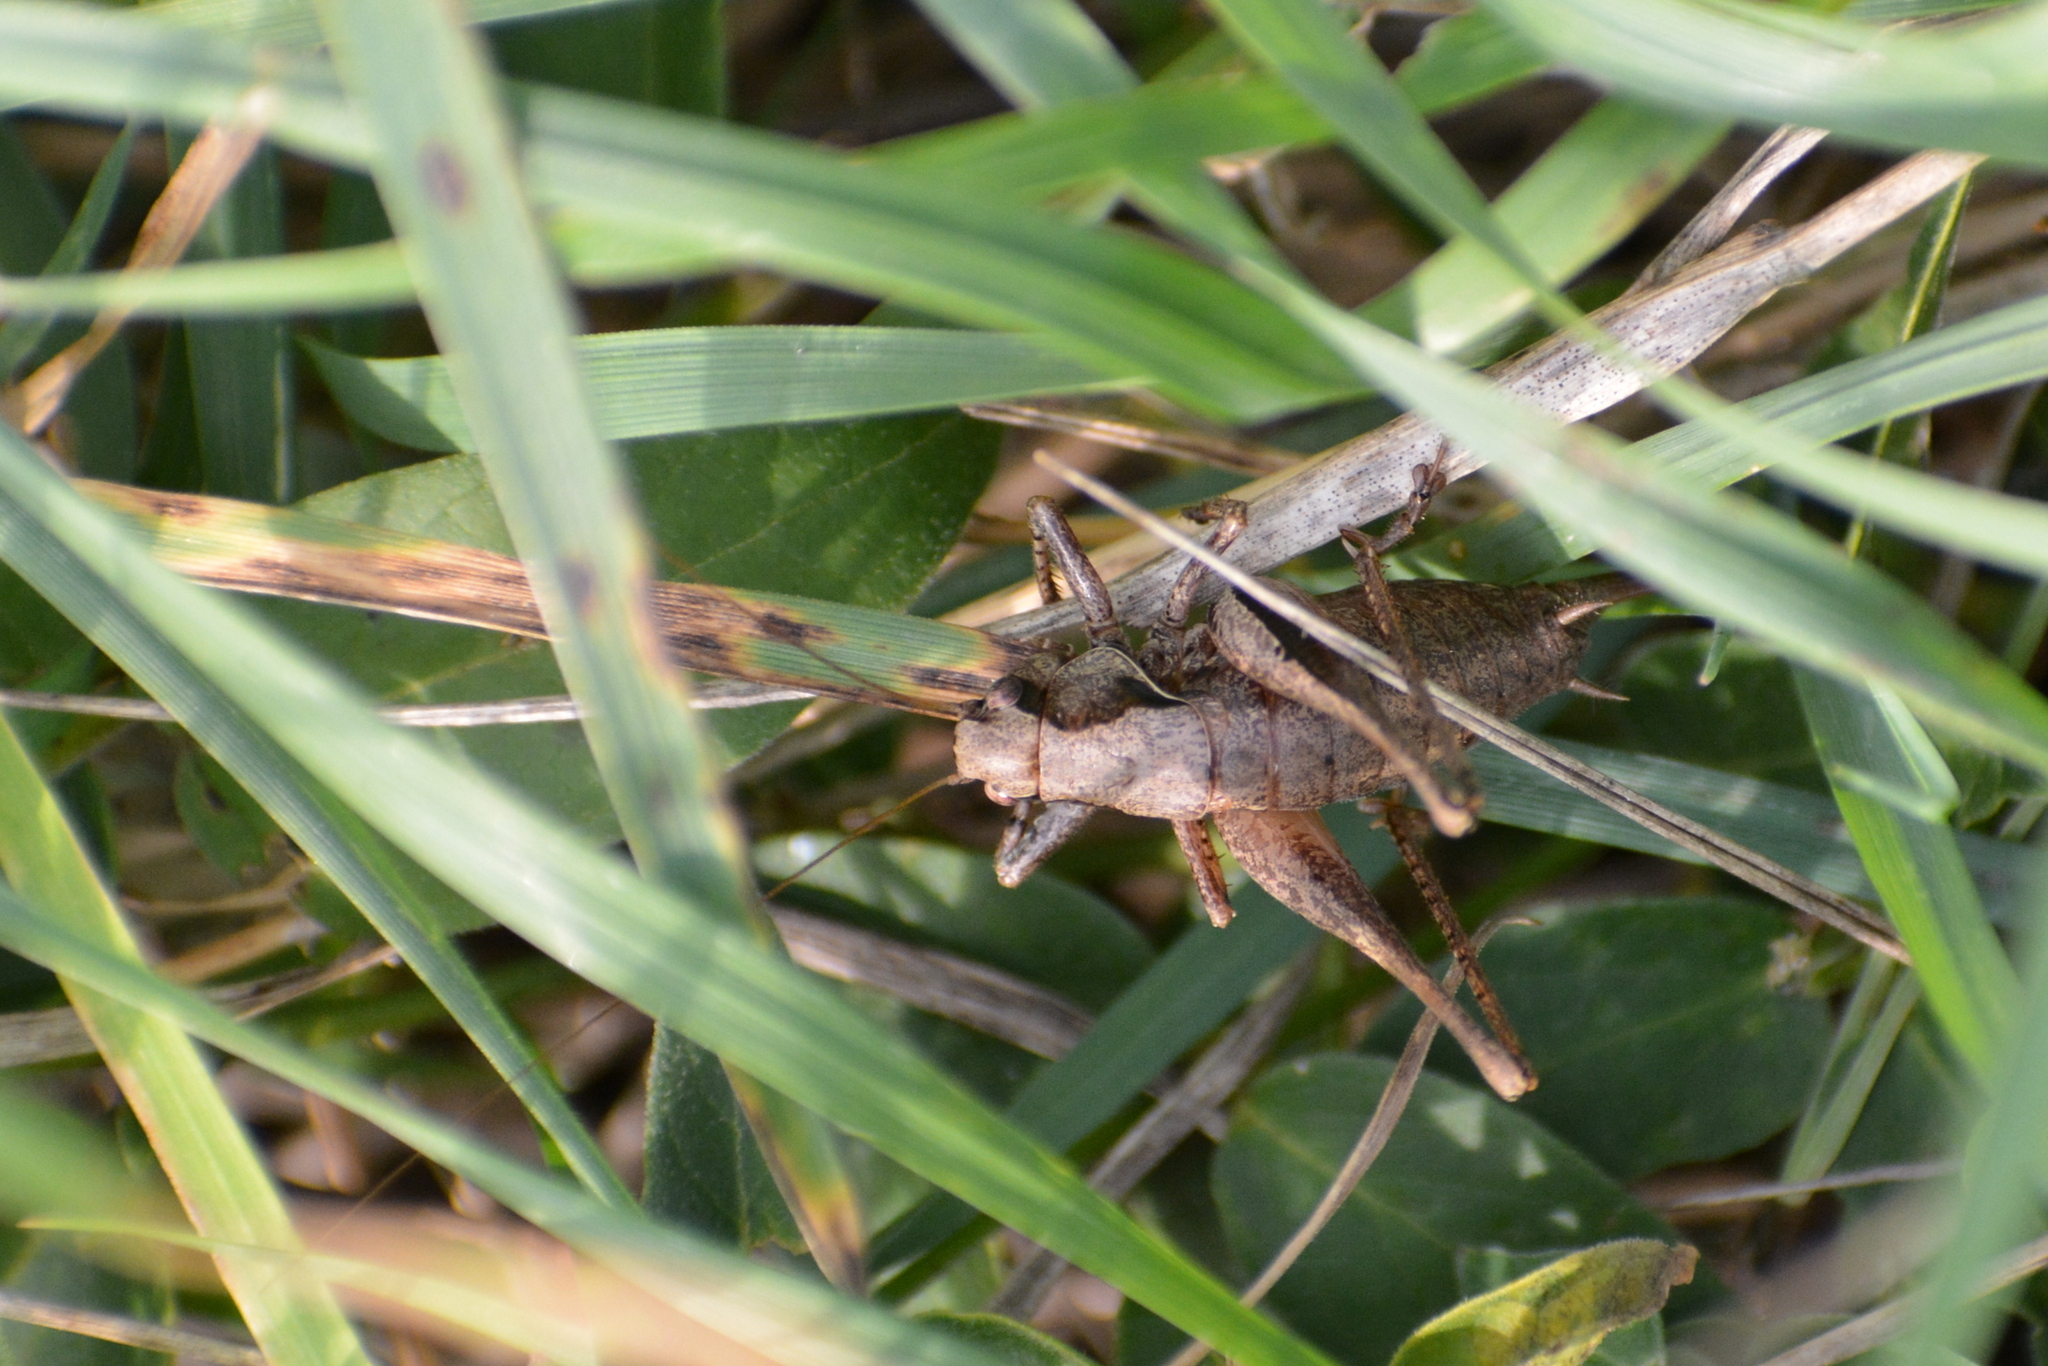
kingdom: Animalia
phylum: Arthropoda
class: Insecta
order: Orthoptera
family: Tettigoniidae
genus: Pholidoptera
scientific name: Pholidoptera griseoaptera
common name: Dark bush-cricket
